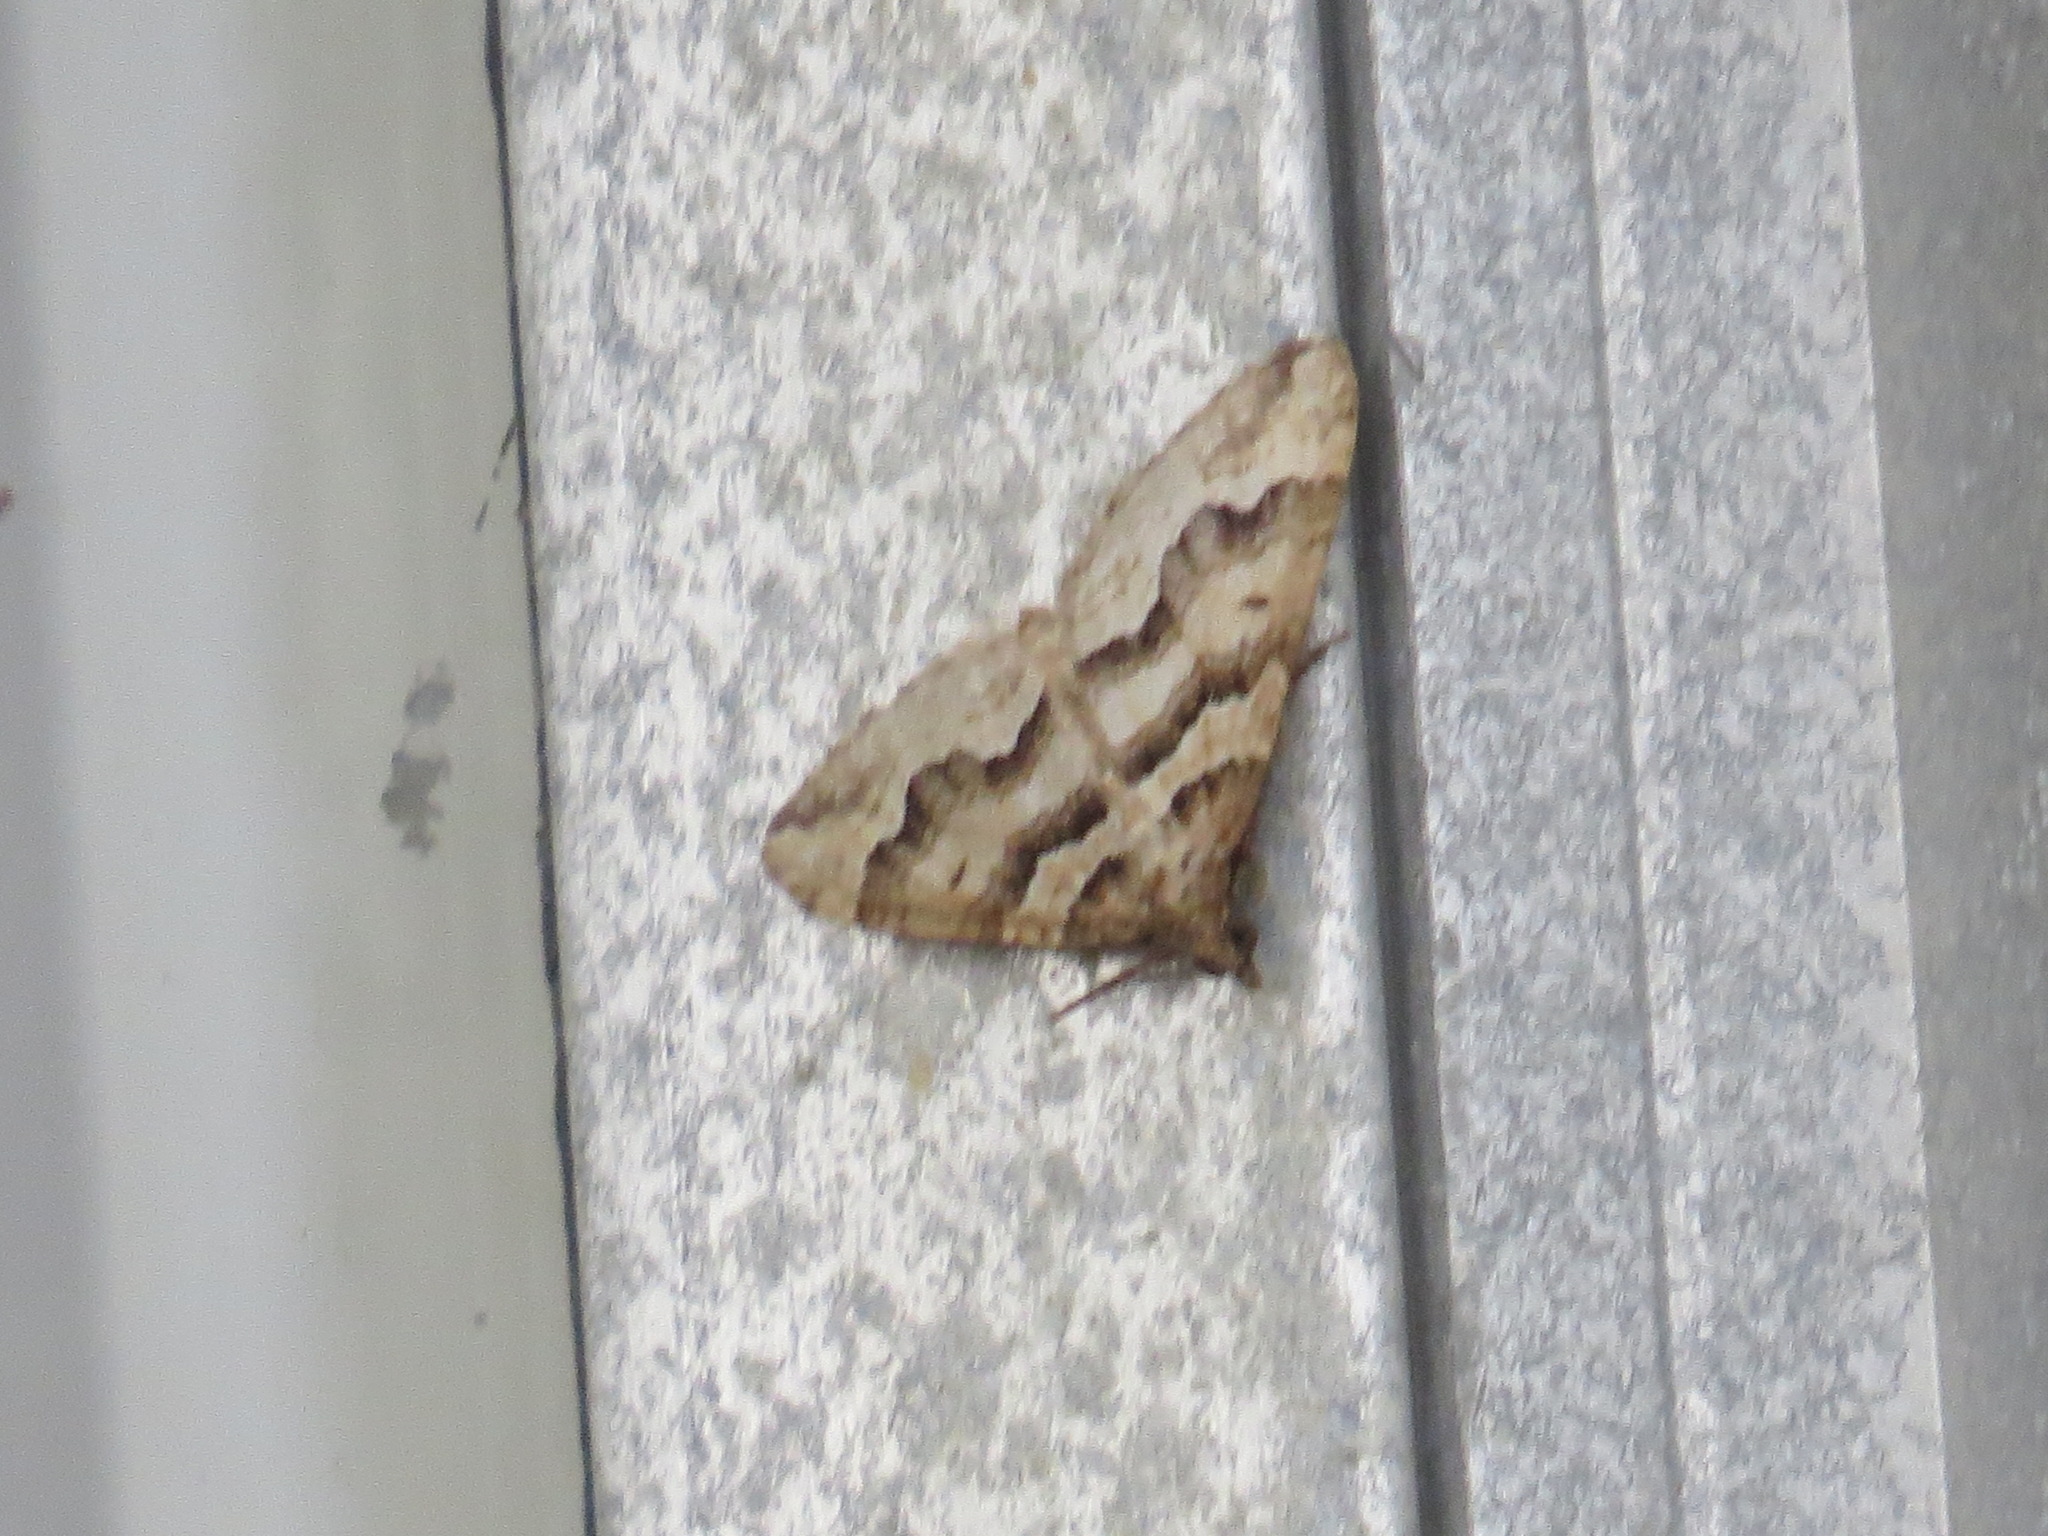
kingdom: Animalia
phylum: Arthropoda
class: Insecta
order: Lepidoptera
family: Geometridae
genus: Perizoma
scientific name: Perizoma epictata
